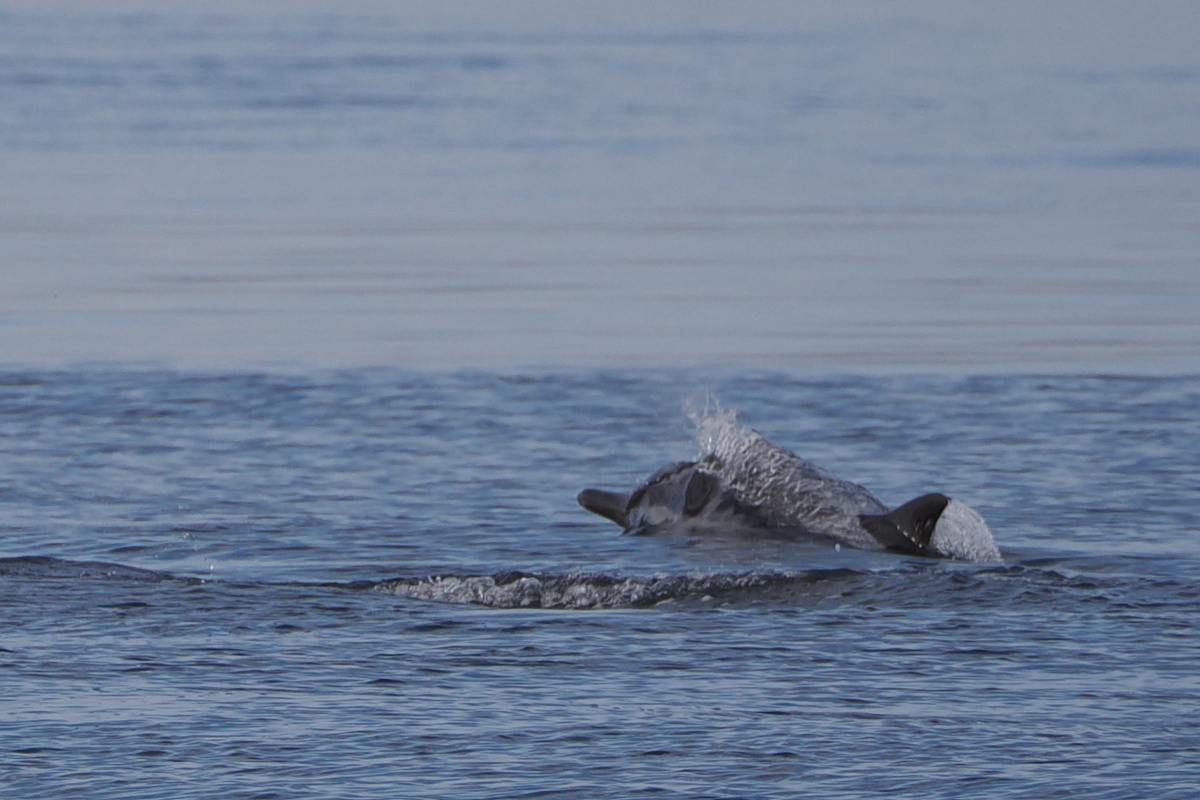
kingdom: Animalia
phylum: Chordata
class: Mammalia
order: Cetacea
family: Delphinidae
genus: Delphinus
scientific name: Delphinus delphis
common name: Common dolphin
